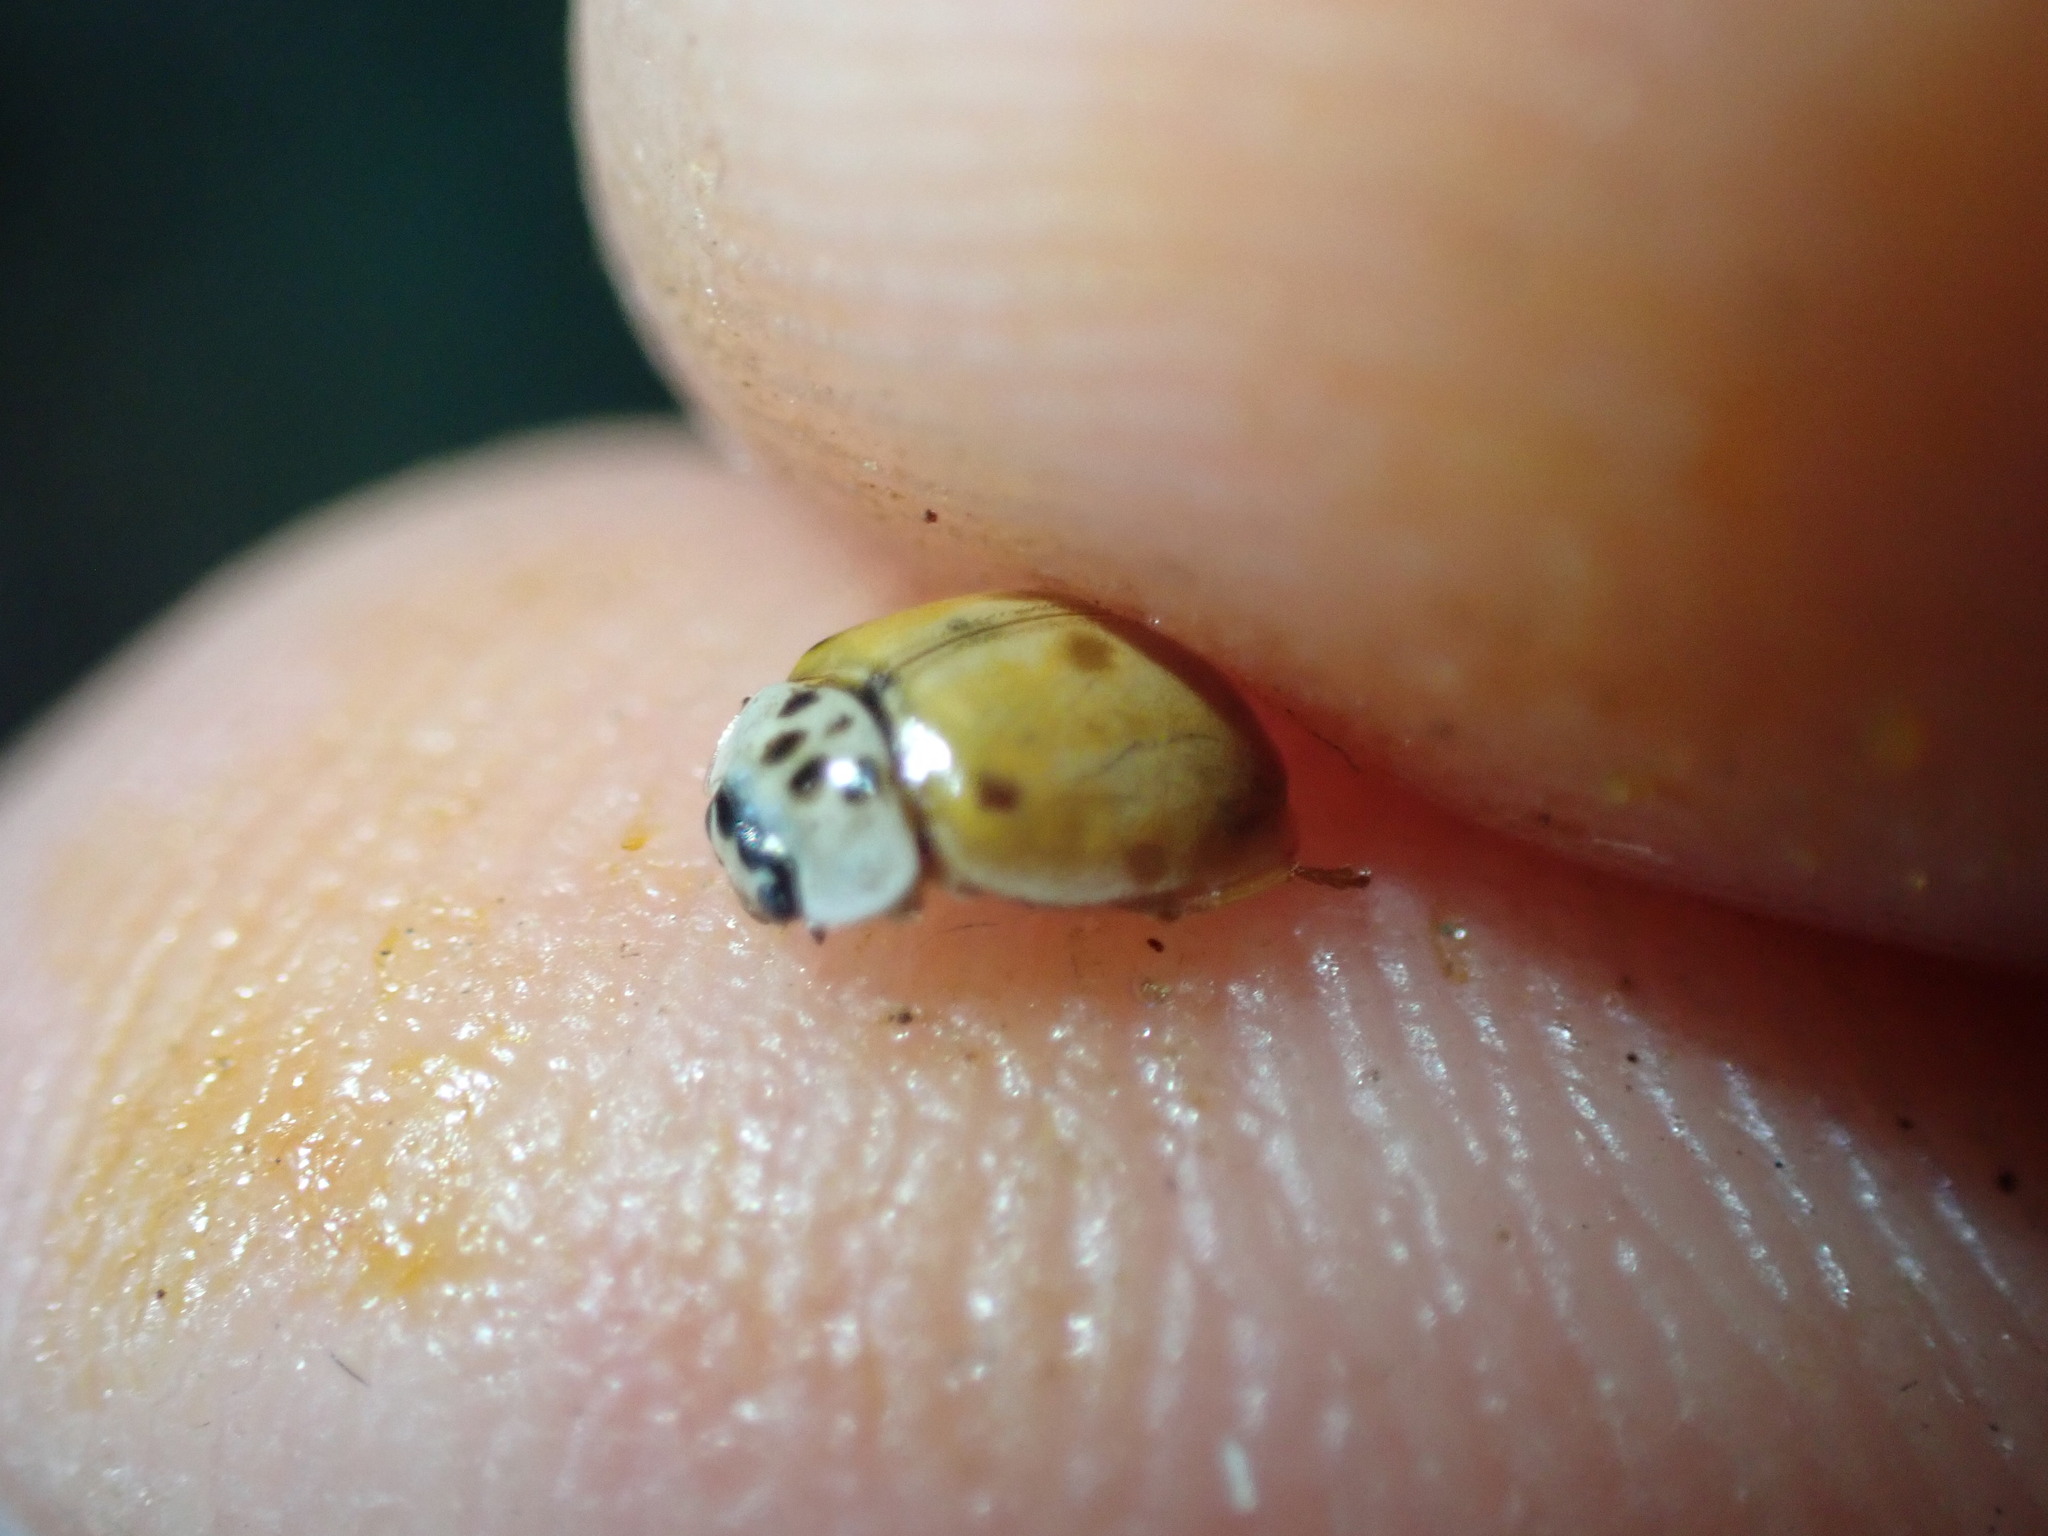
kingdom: Animalia
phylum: Arthropoda
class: Insecta
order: Coleoptera
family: Coccinellidae
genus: Adalia
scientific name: Adalia decempunctata
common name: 10-spot ladybird
